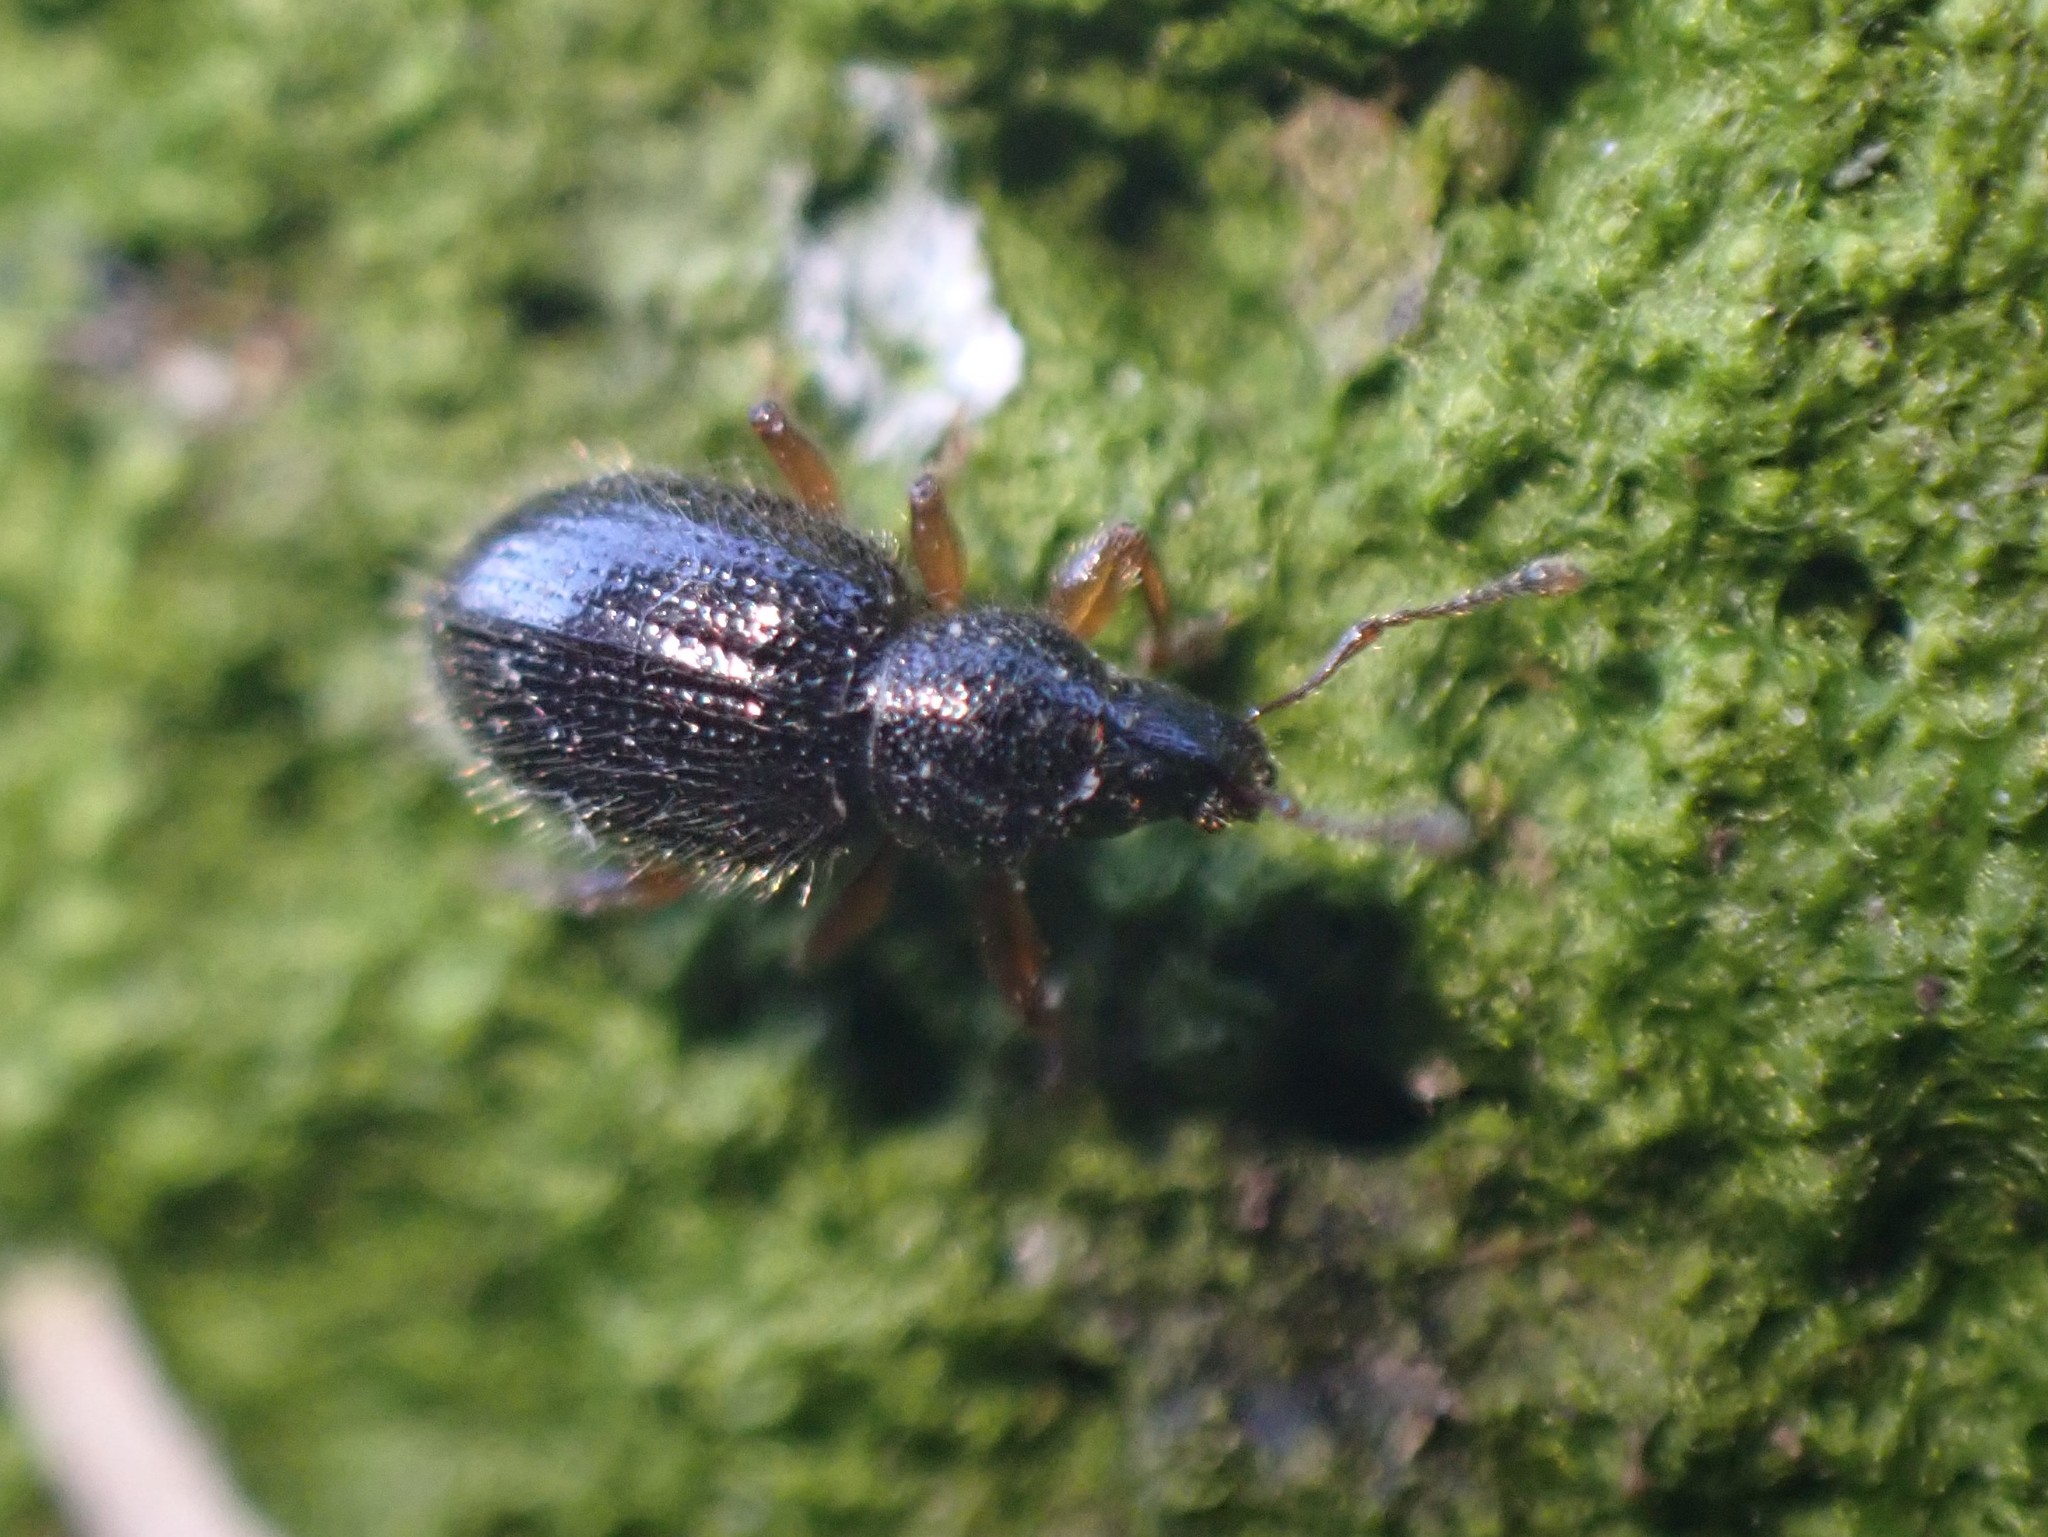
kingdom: Animalia
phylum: Arthropoda
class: Insecta
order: Coleoptera
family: Curculionidae
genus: Exomias
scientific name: Exomias pellucidus
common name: Hairy spider weevil
